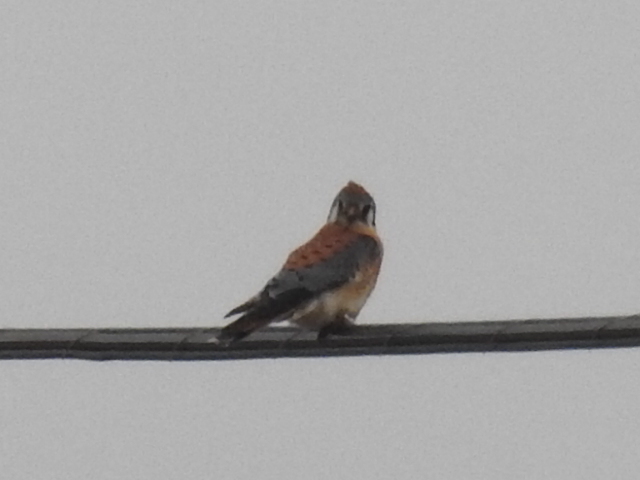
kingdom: Animalia
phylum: Chordata
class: Aves
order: Falconiformes
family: Falconidae
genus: Falco
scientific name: Falco sparverius
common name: American kestrel
